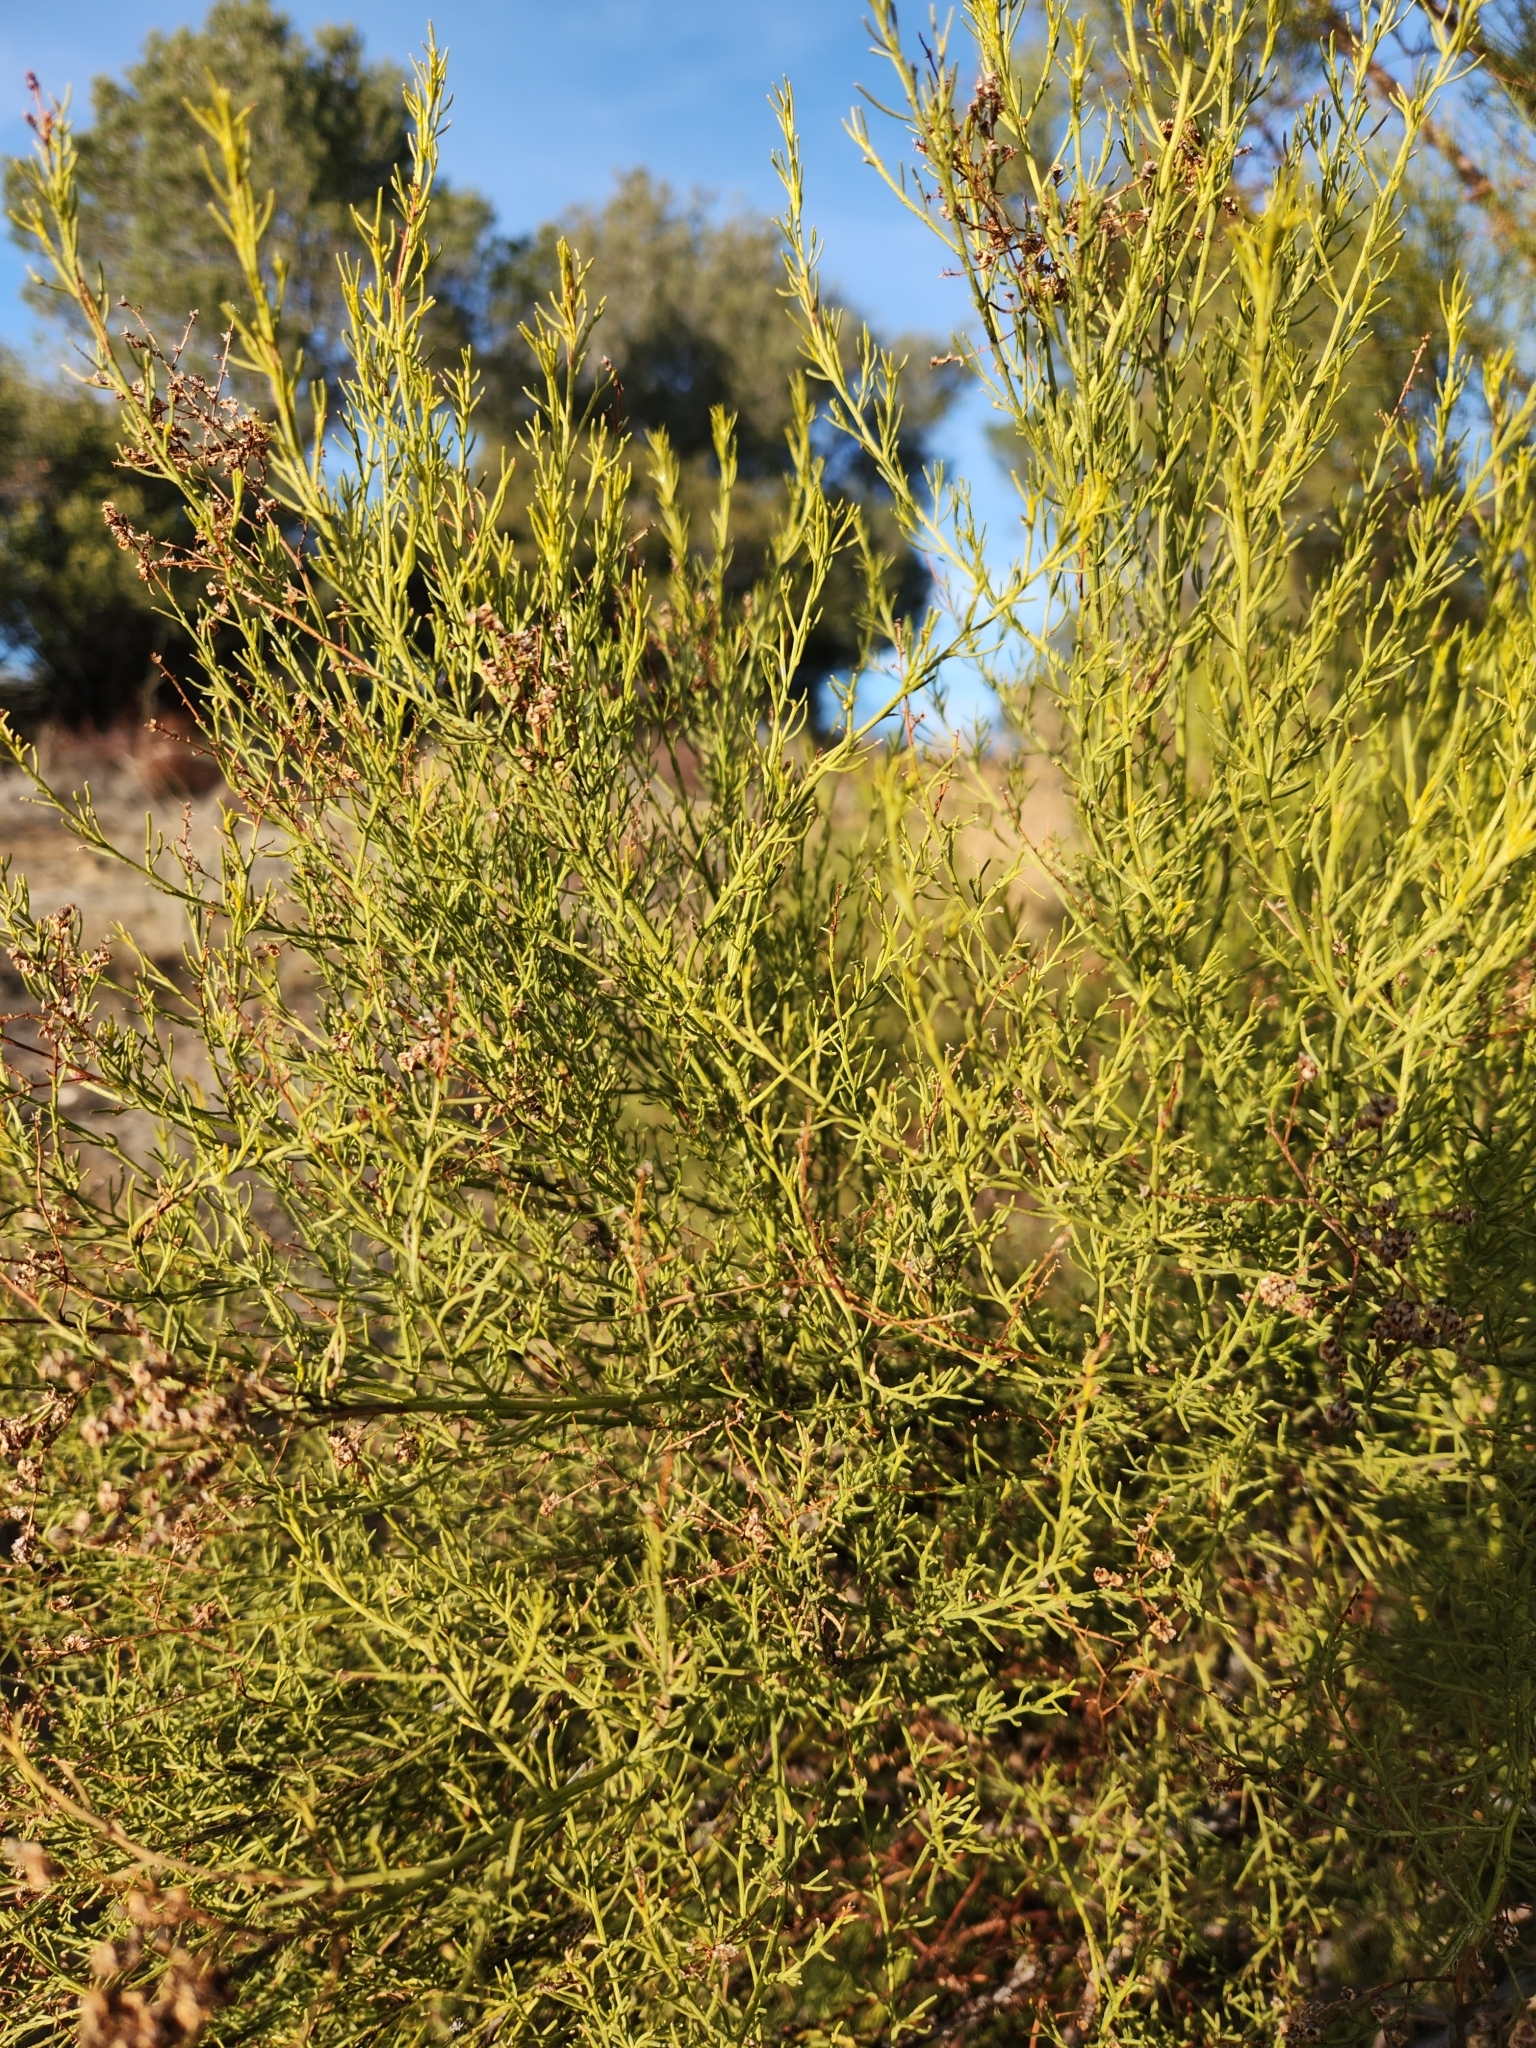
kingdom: Plantae
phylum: Tracheophyta
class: Magnoliopsida
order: Rosales
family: Rosaceae
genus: Adenostoma
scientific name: Adenostoma sparsifolium
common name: Red shank
